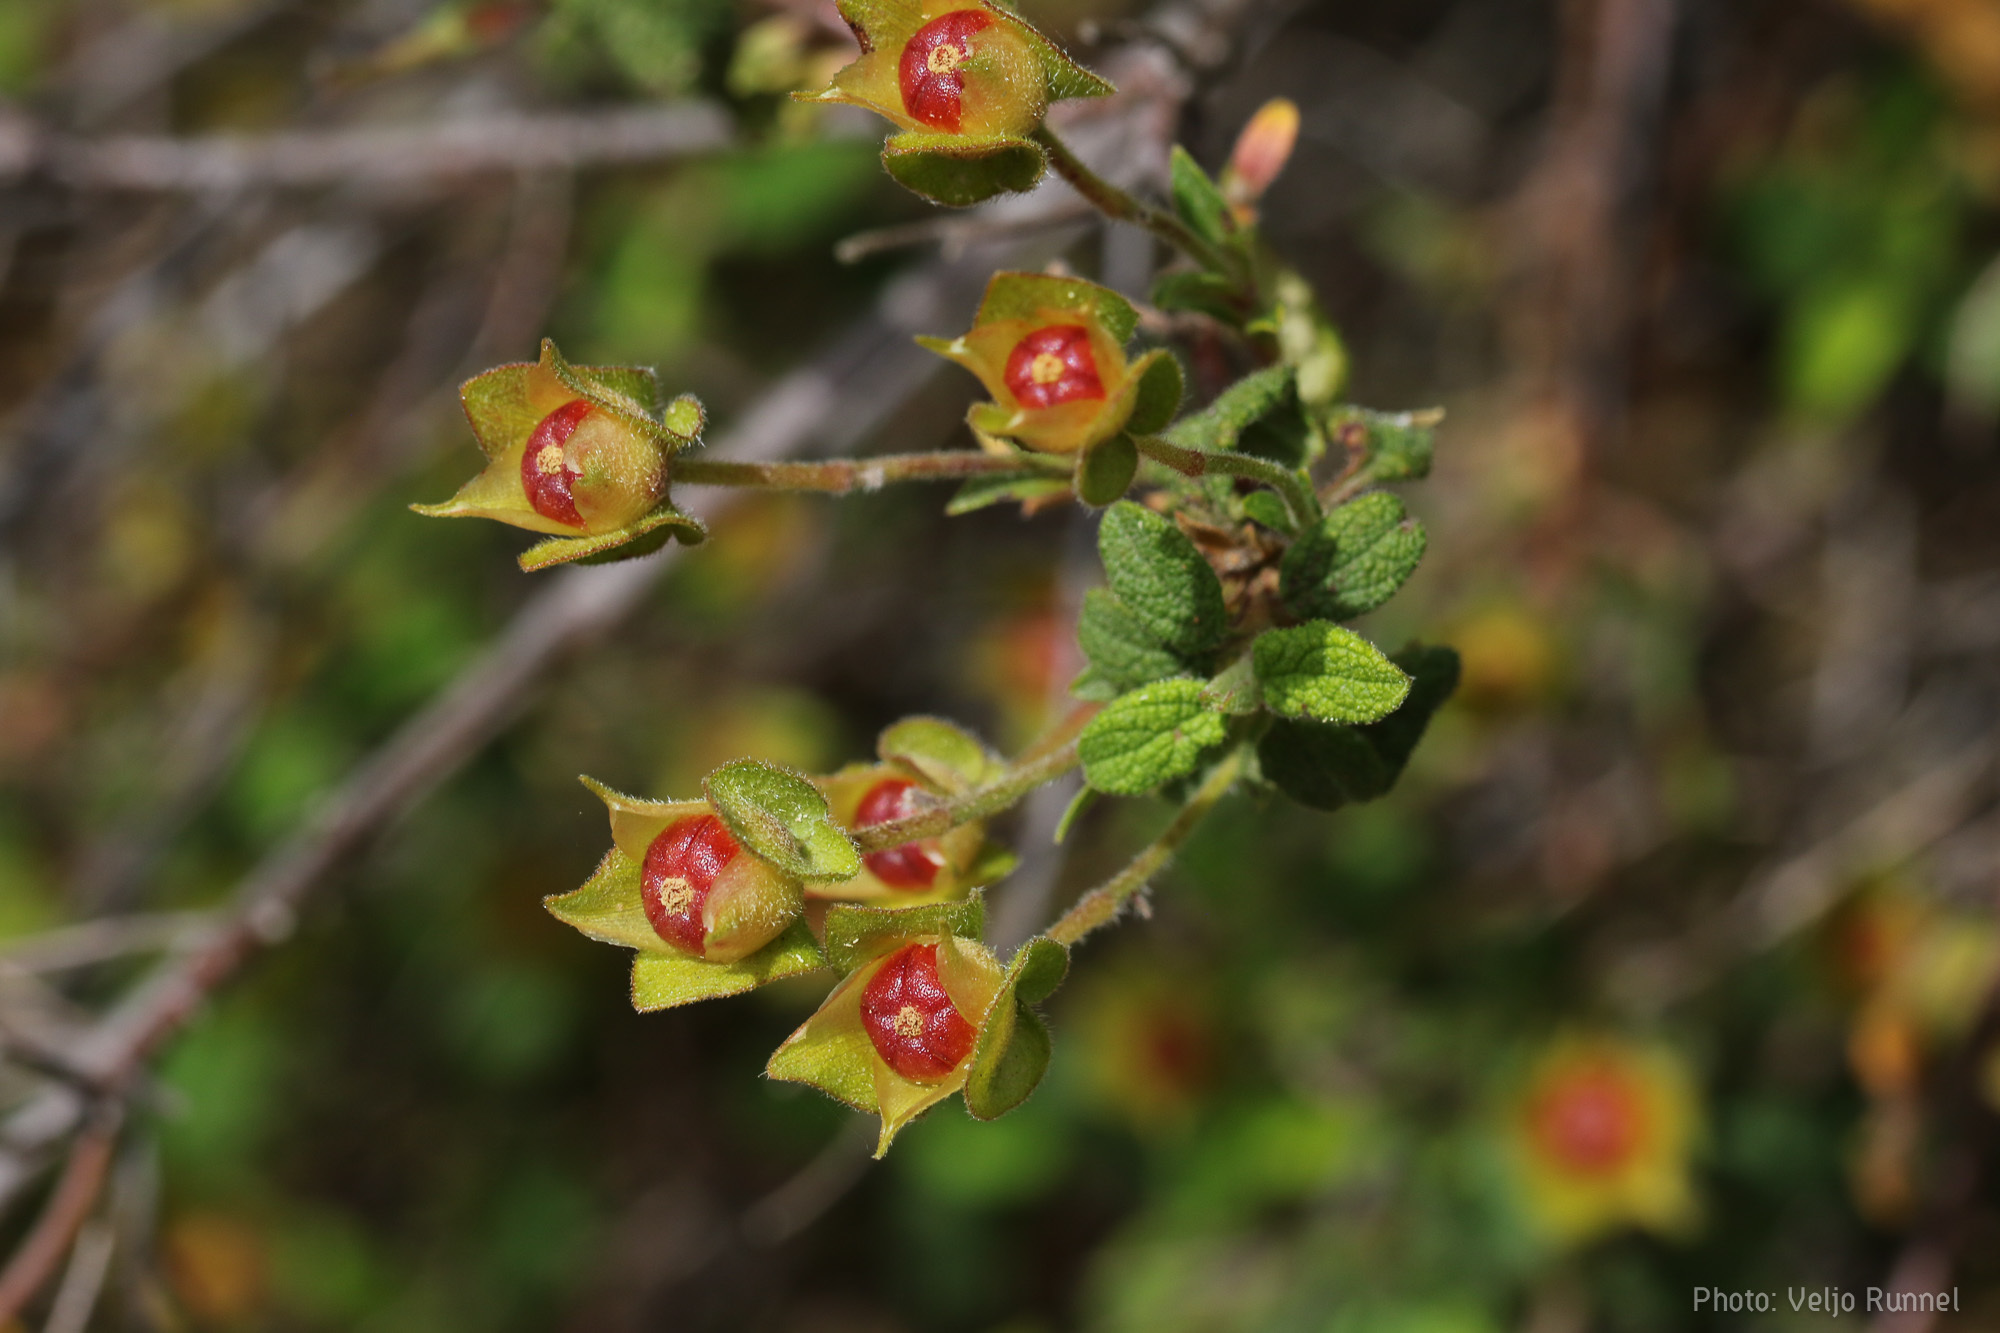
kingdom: Plantae
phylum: Tracheophyta
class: Magnoliopsida
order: Malvales
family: Cistaceae
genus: Cistus
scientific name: Cistus salviifolius
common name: Salvia cistus
